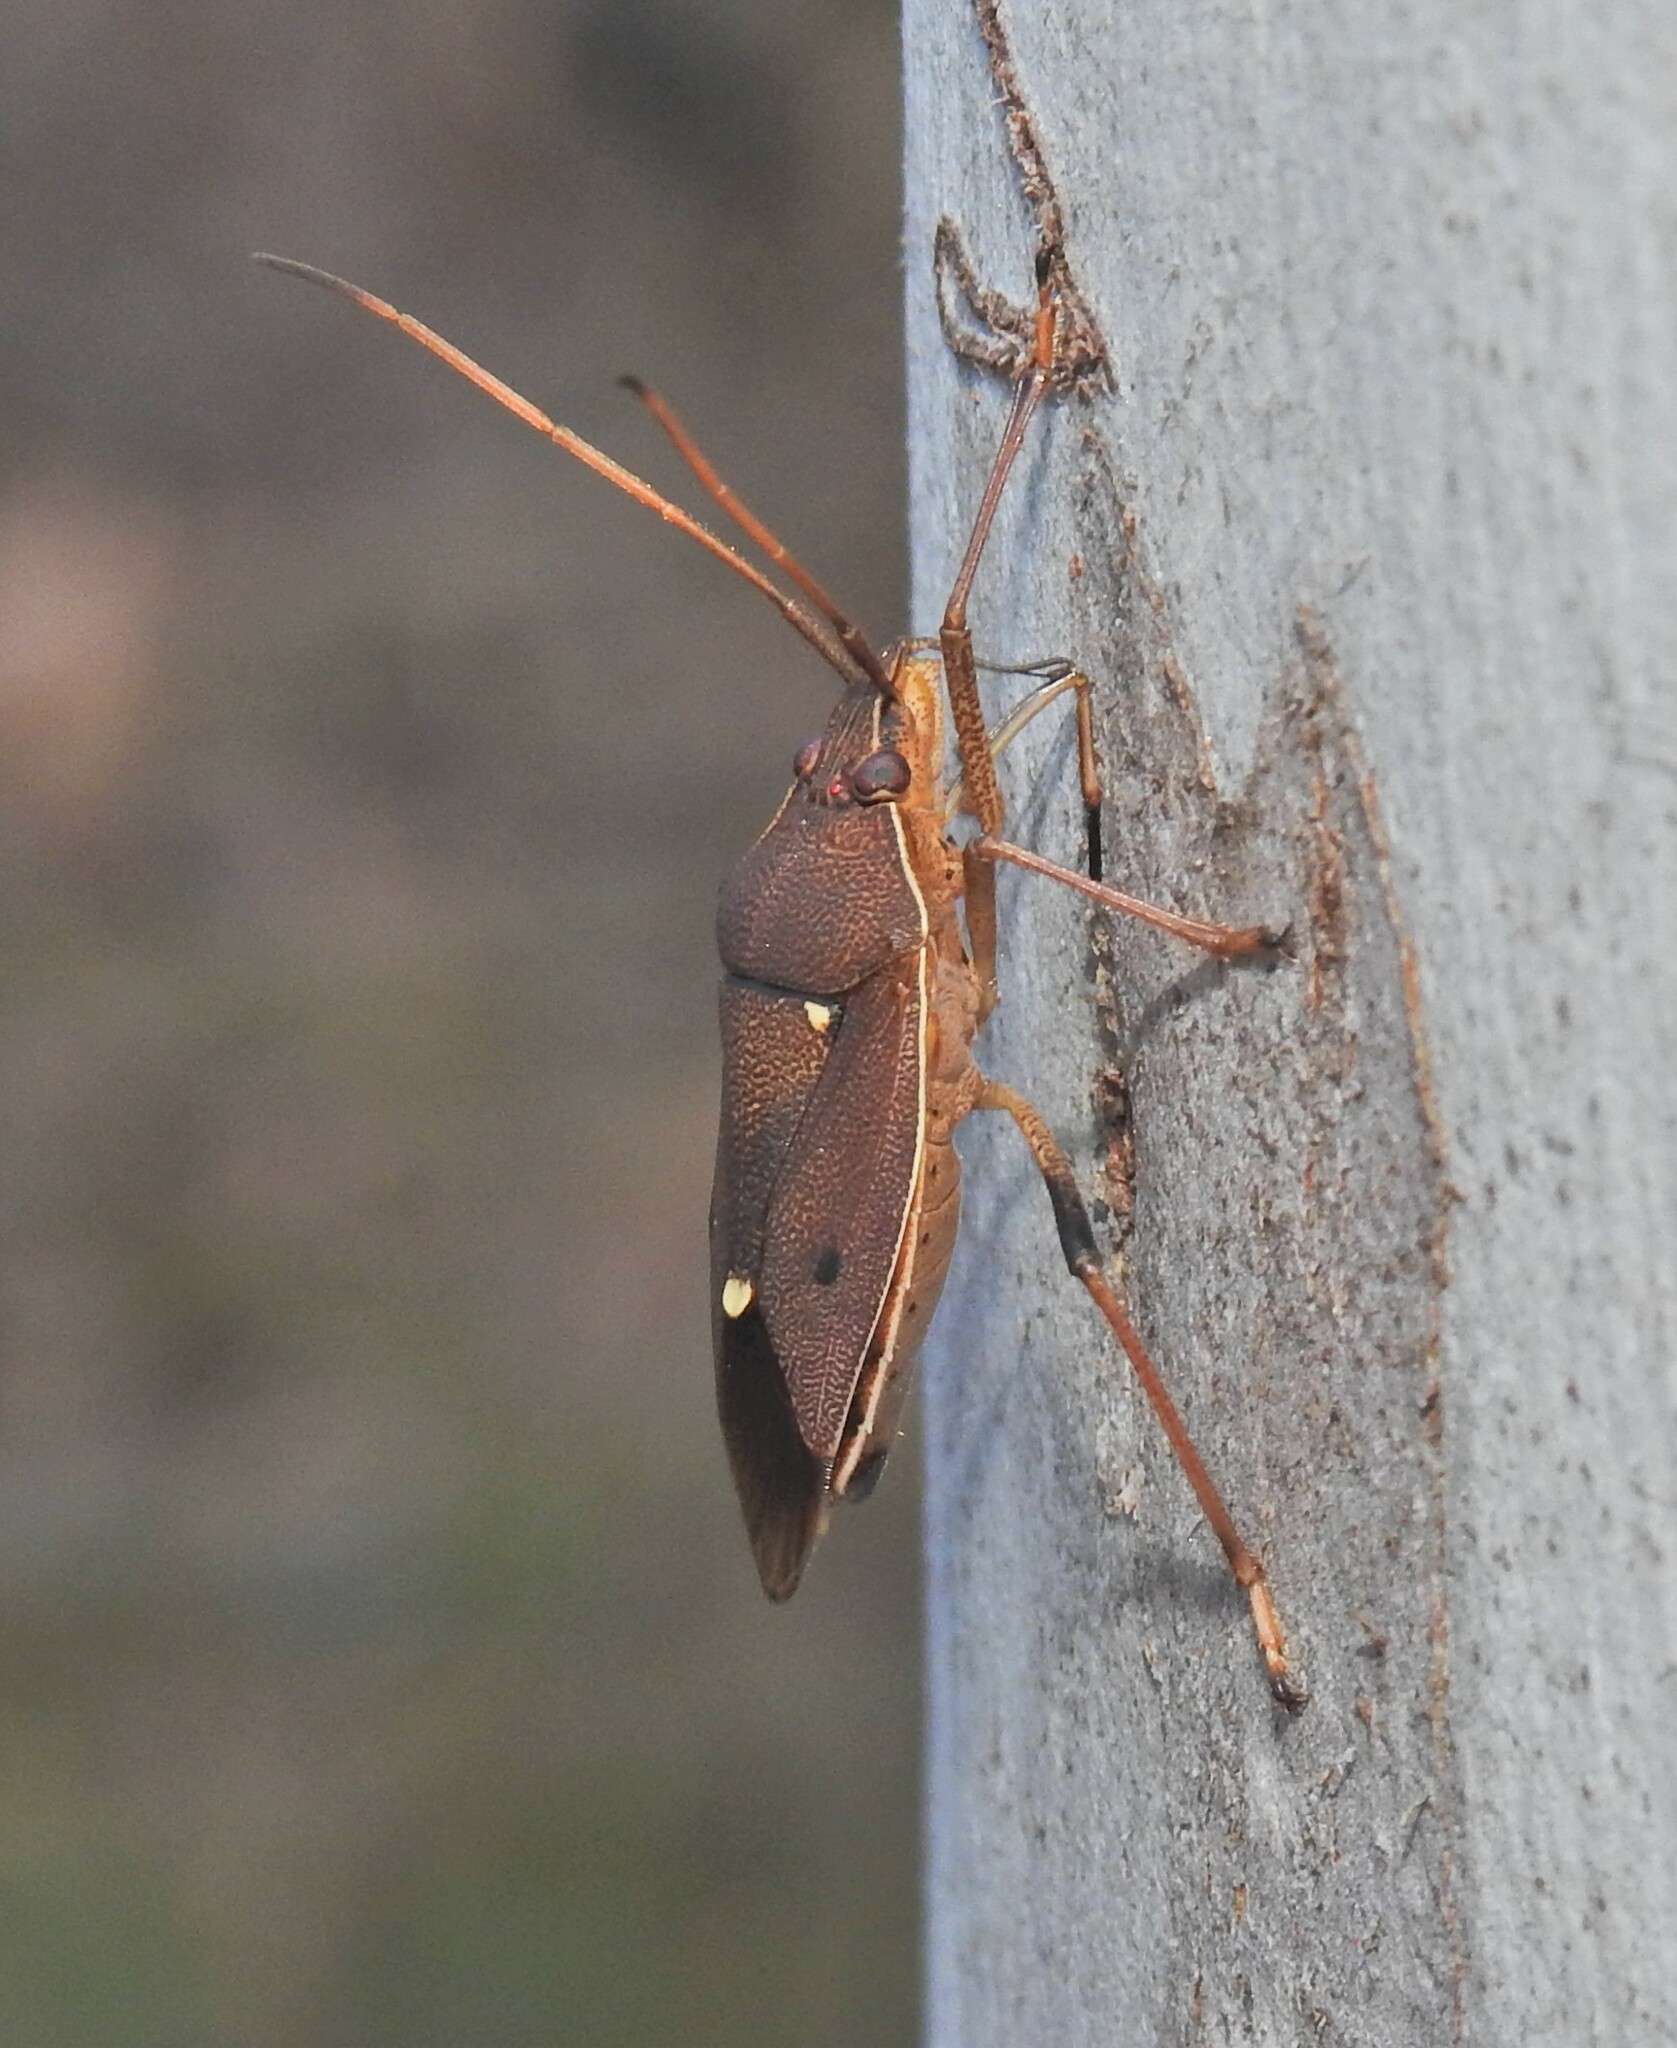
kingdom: Animalia
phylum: Arthropoda
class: Insecta
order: Hemiptera
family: Pentatomidae
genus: Poecilometis
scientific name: Poecilometis
